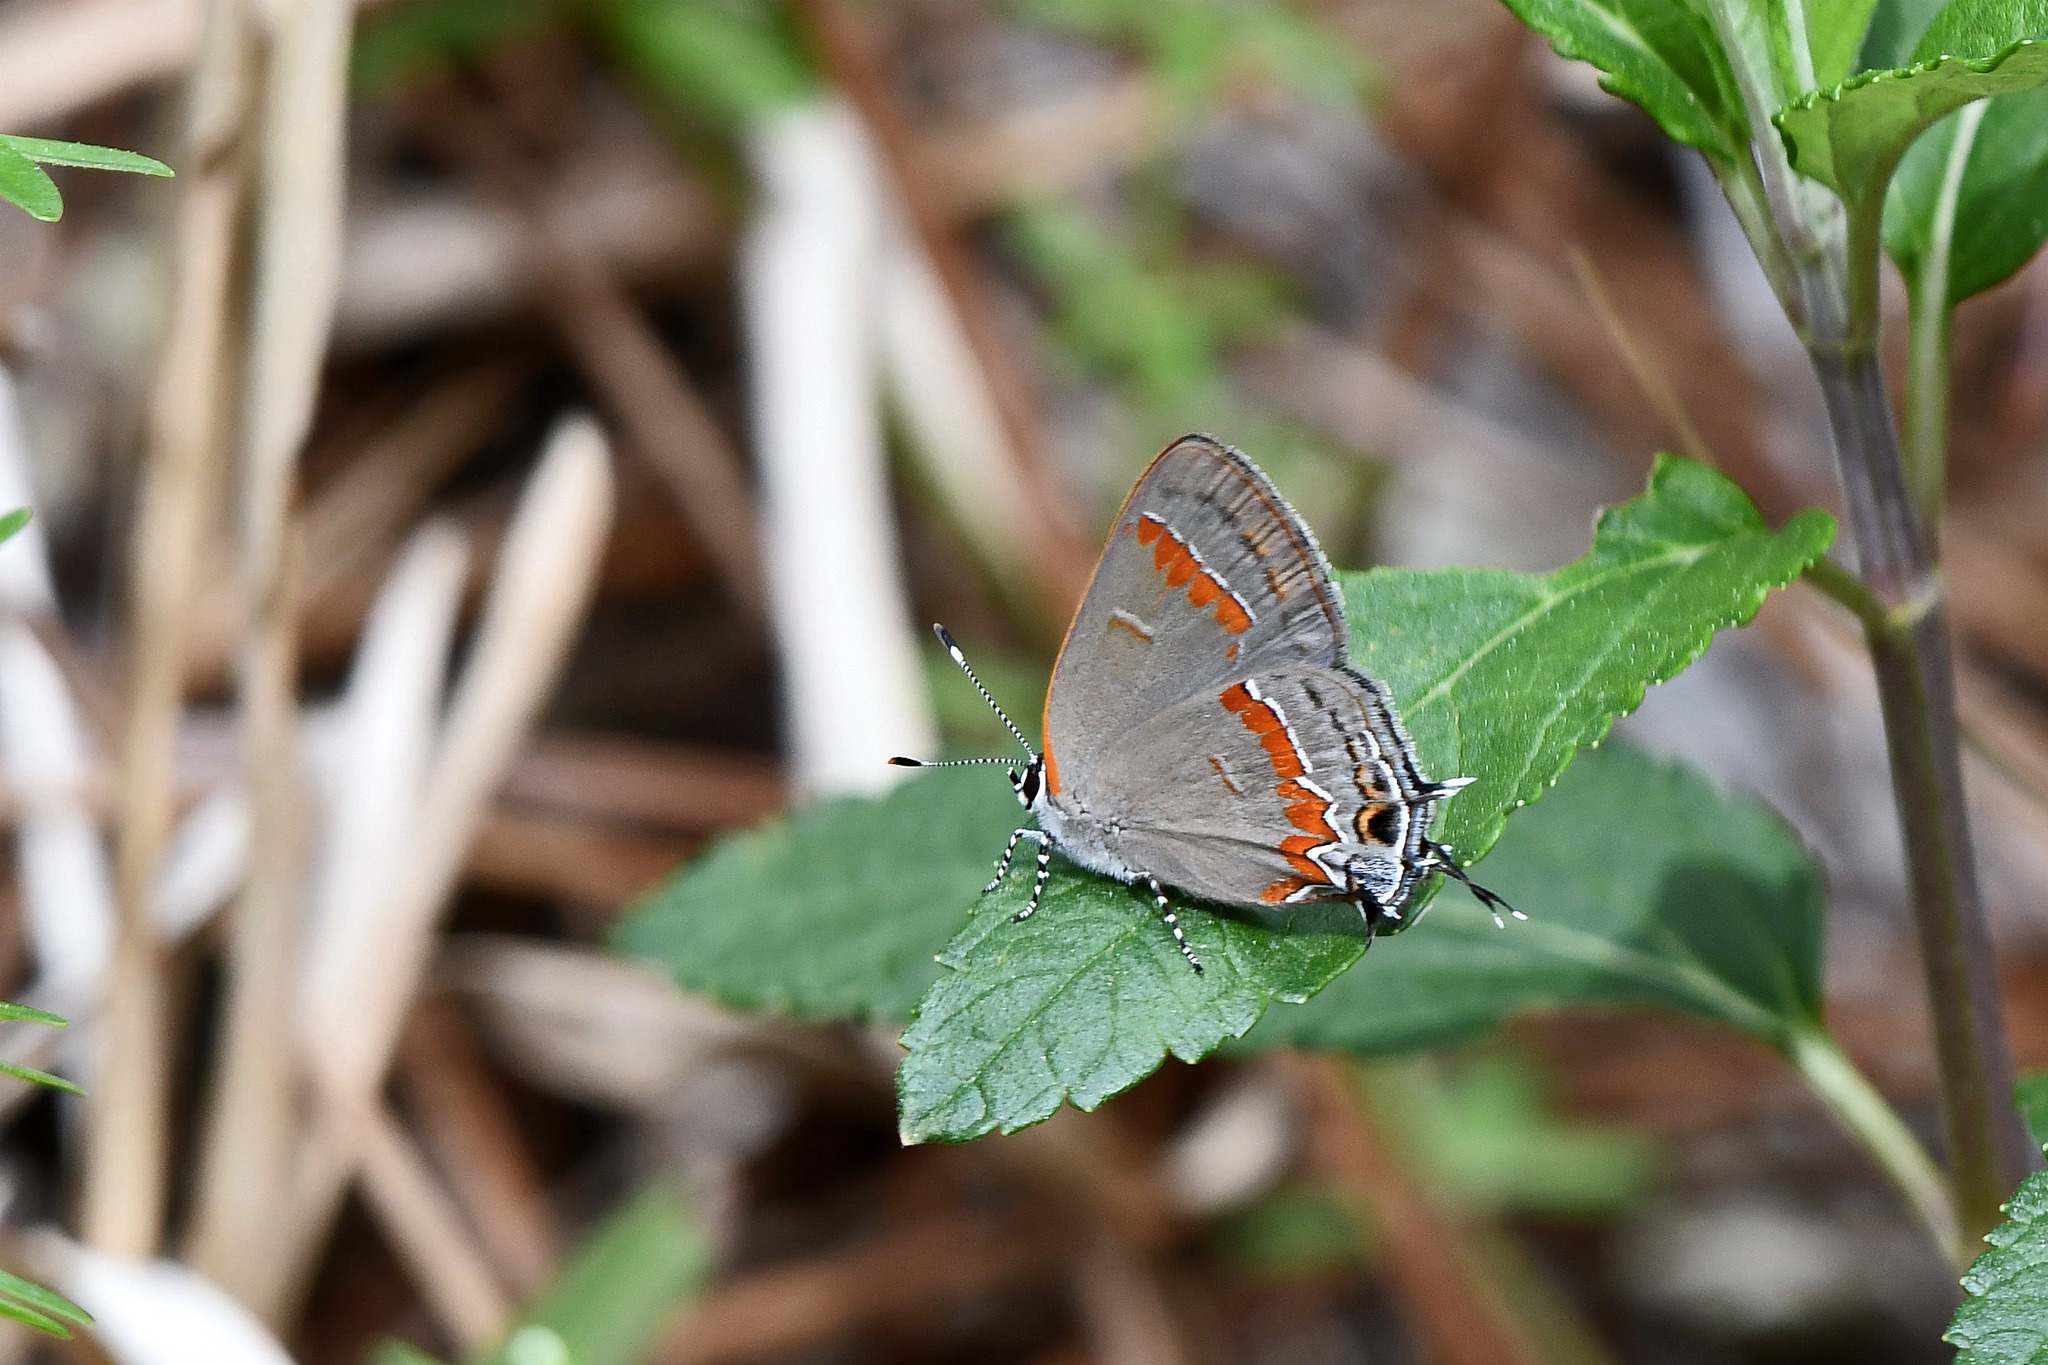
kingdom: Animalia
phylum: Arthropoda
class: Insecta
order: Lepidoptera
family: Lycaenidae
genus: Calycopis
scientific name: Calycopis cecrops
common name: Red-banded hairstreak
